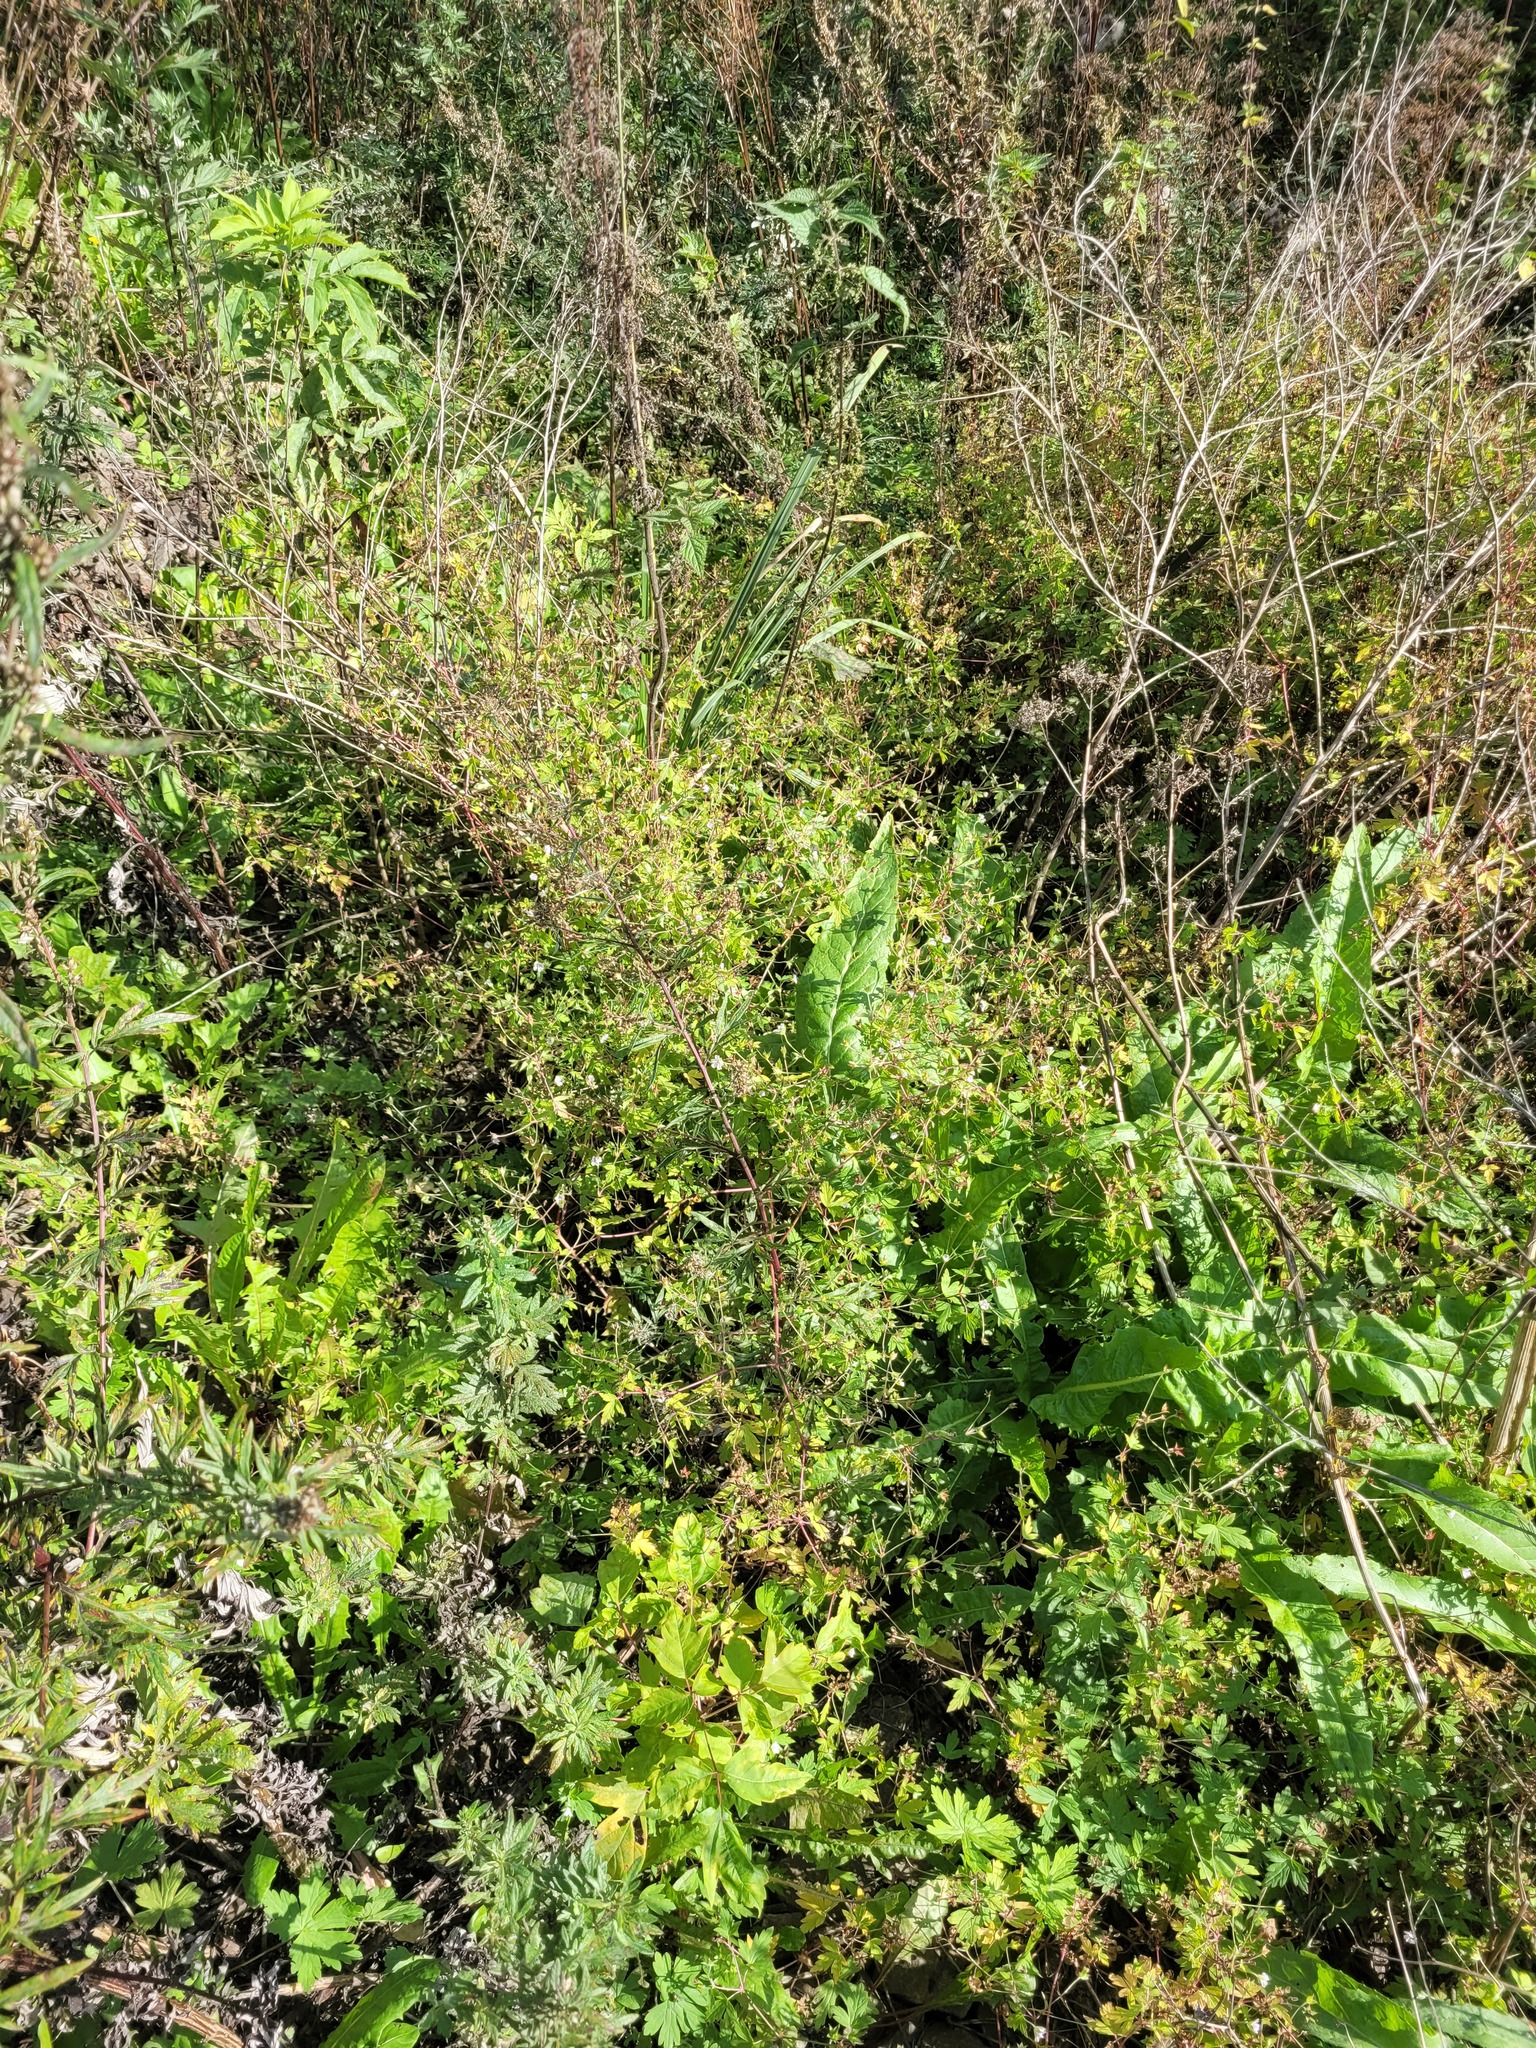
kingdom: Plantae
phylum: Tracheophyta
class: Magnoliopsida
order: Geraniales
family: Geraniaceae
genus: Geranium
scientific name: Geranium sibiricum
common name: Siberian crane's-bill
